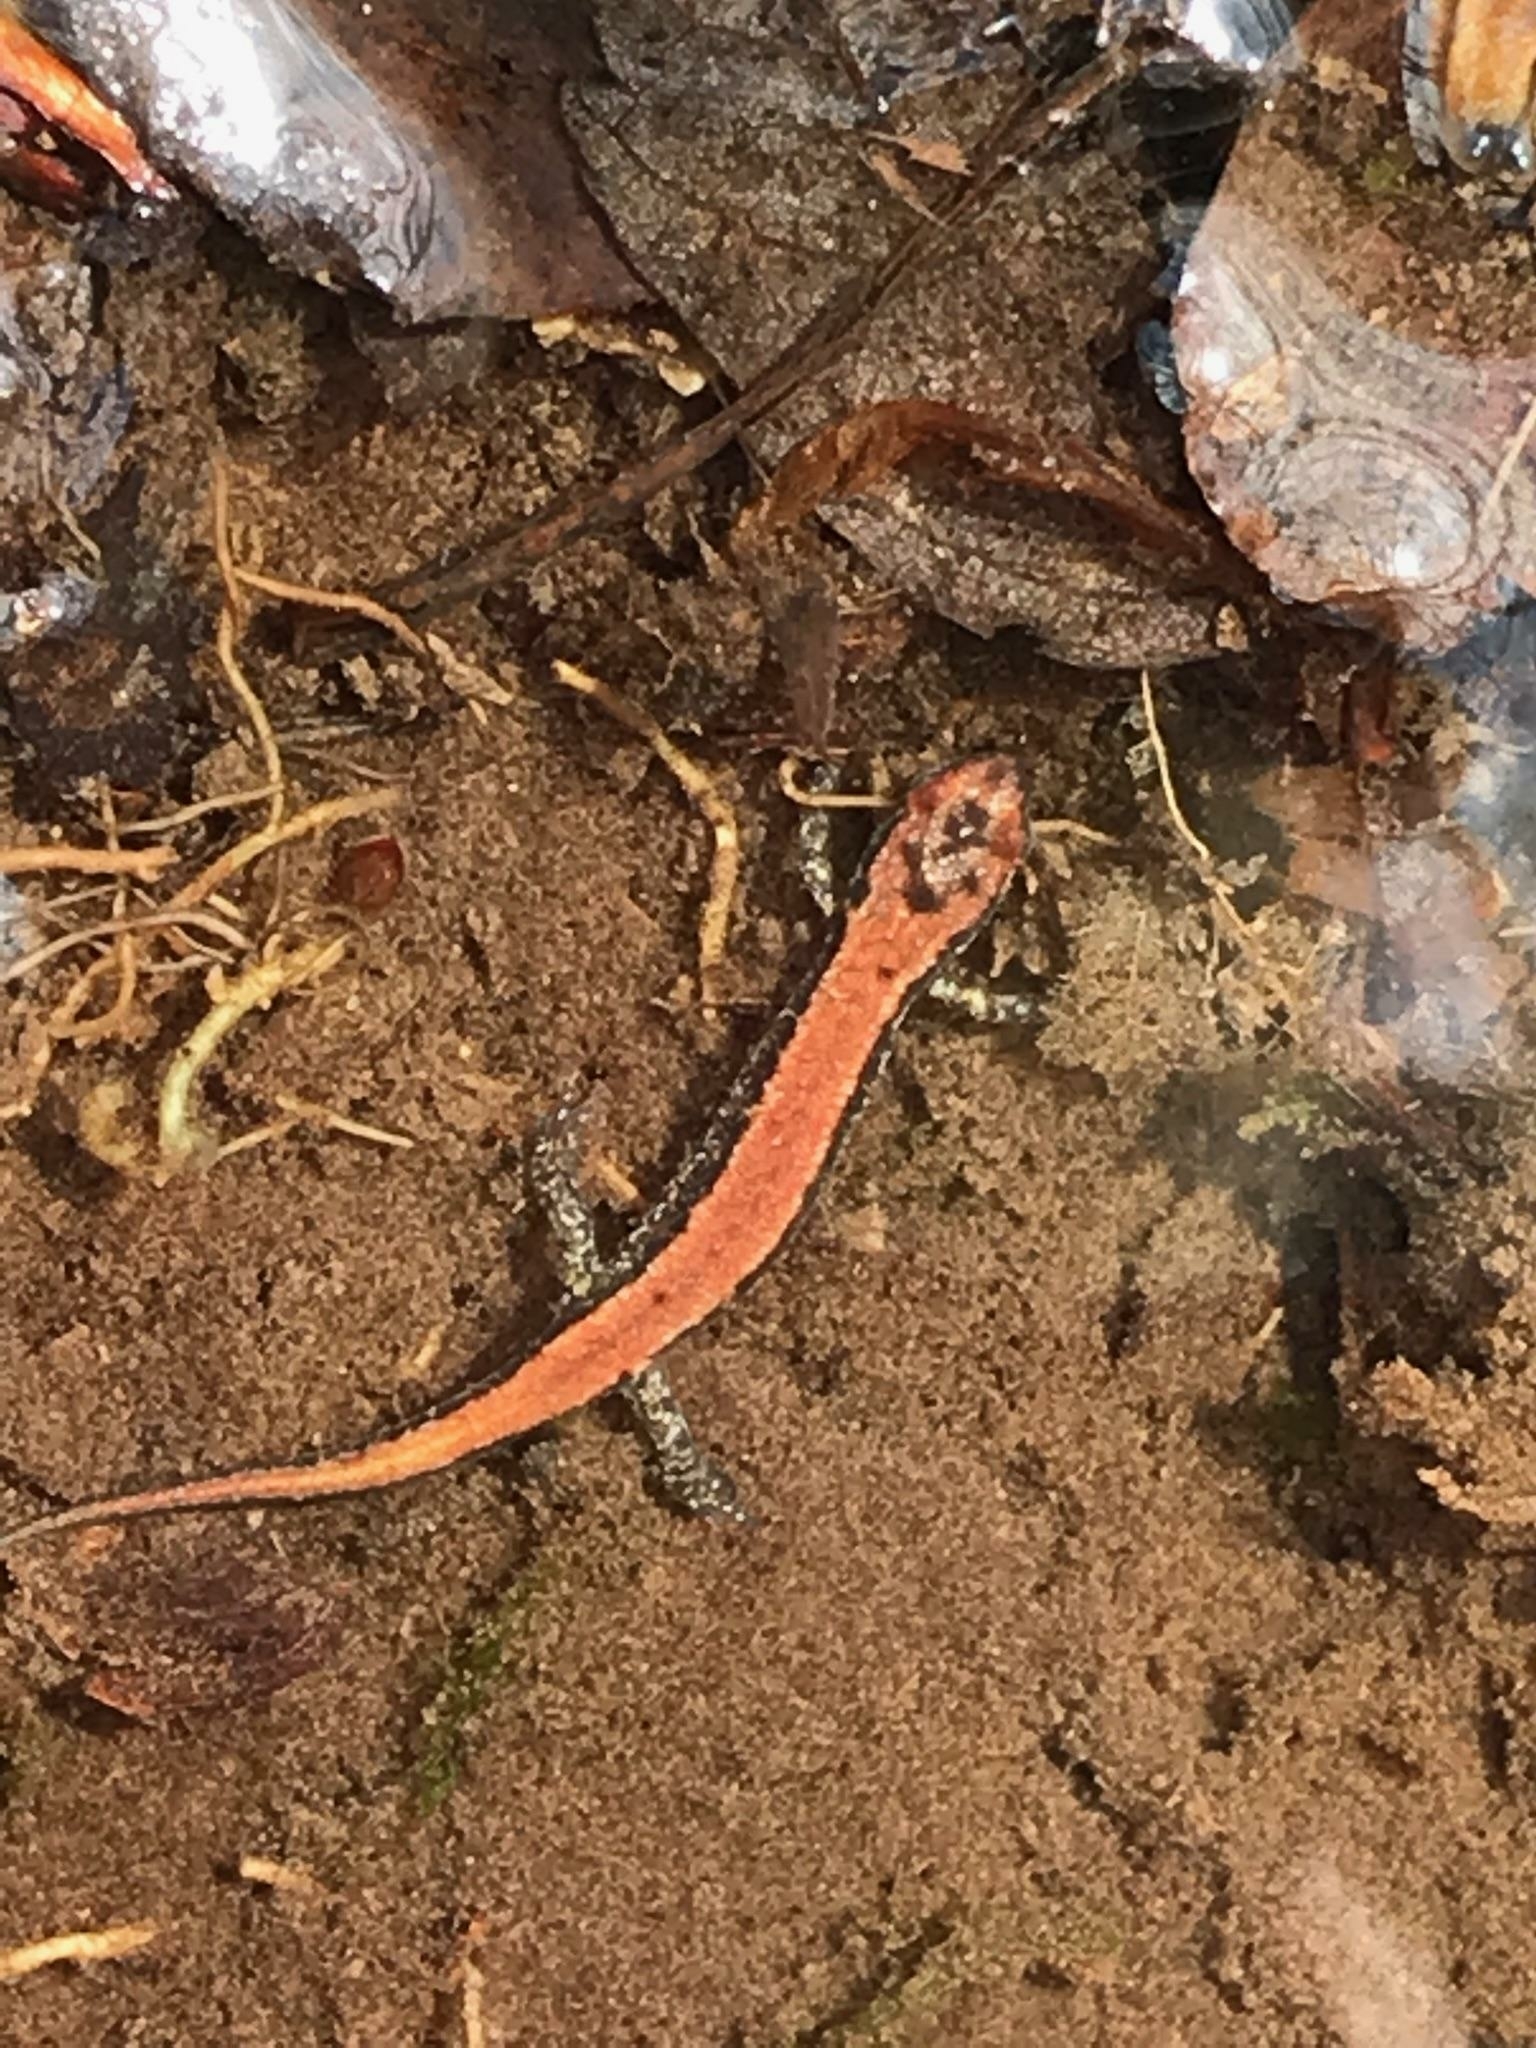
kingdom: Animalia
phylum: Chordata
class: Amphibia
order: Caudata
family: Plethodontidae
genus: Desmognathus
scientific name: Desmognathus ochrophaeus
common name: Allegheny mountain dusky salamander
